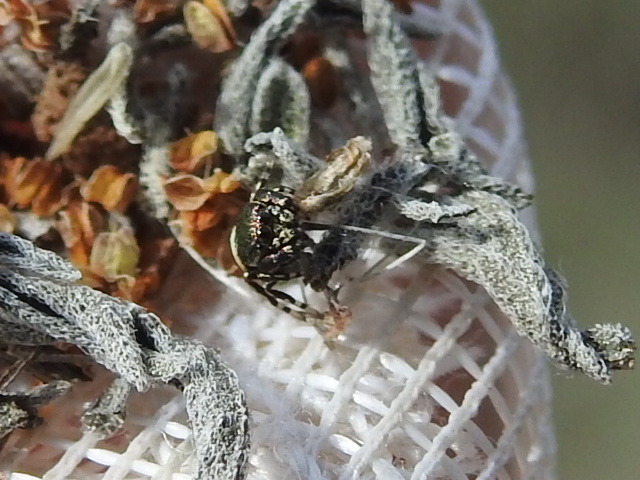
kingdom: Animalia
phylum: Arthropoda
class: Arachnida
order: Araneae
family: Salticidae
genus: Sassacus
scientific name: Sassacus papenhoei
